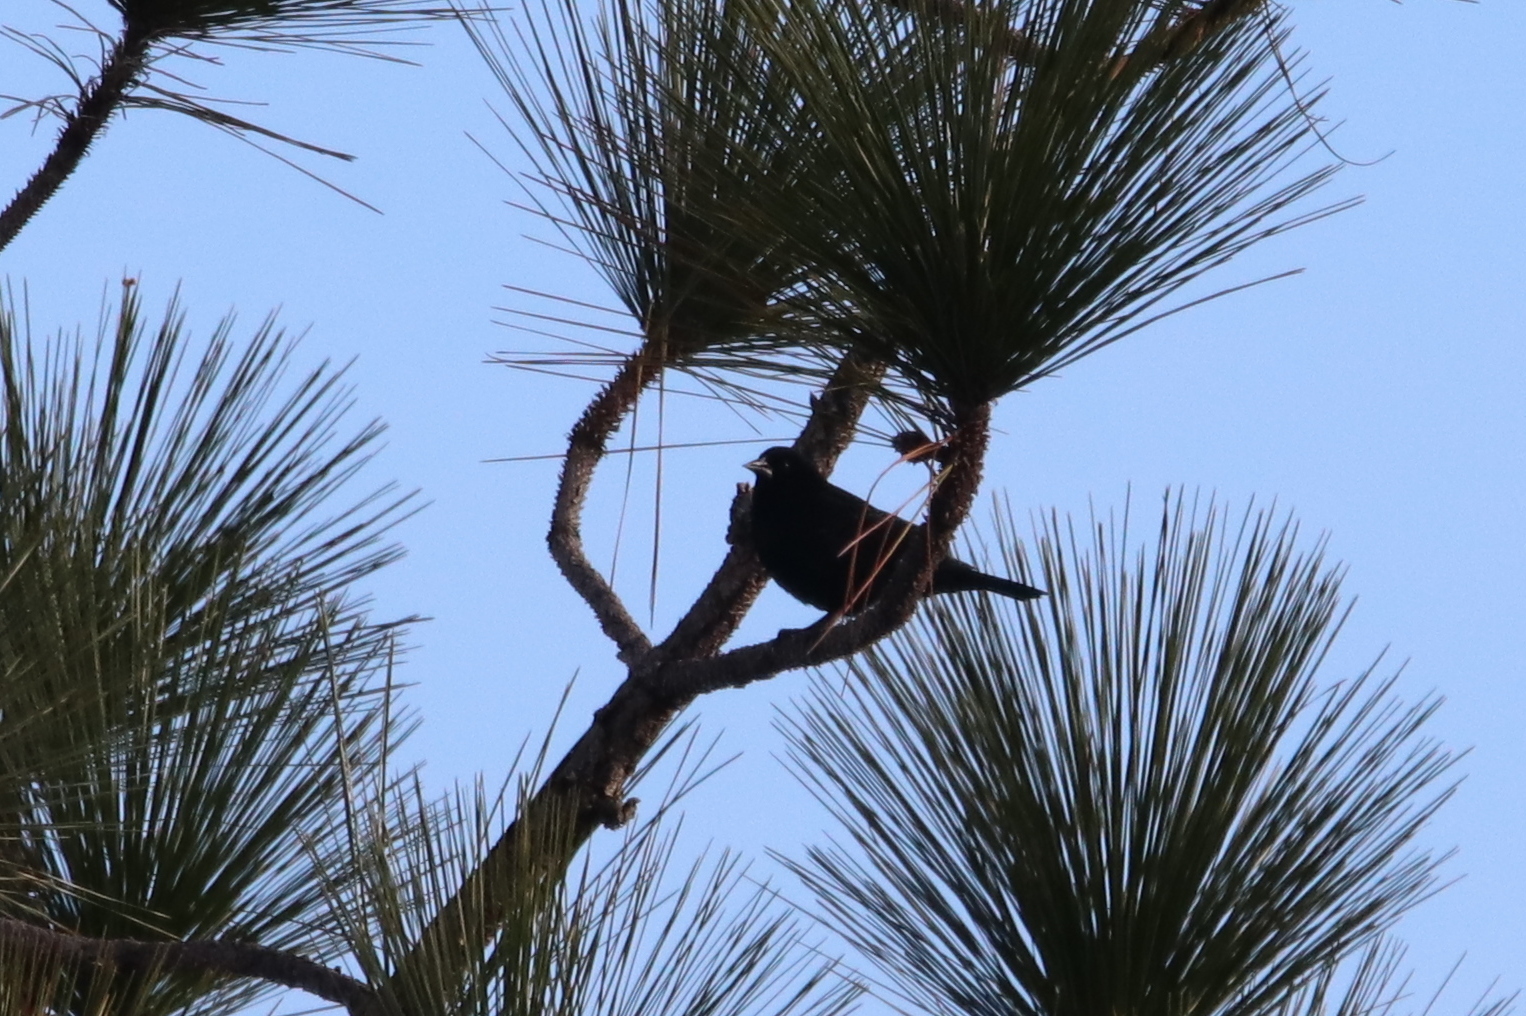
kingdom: Animalia
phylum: Chordata
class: Aves
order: Passeriformes
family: Icteridae
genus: Agelaius
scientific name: Agelaius phoeniceus
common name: Red-winged blackbird
